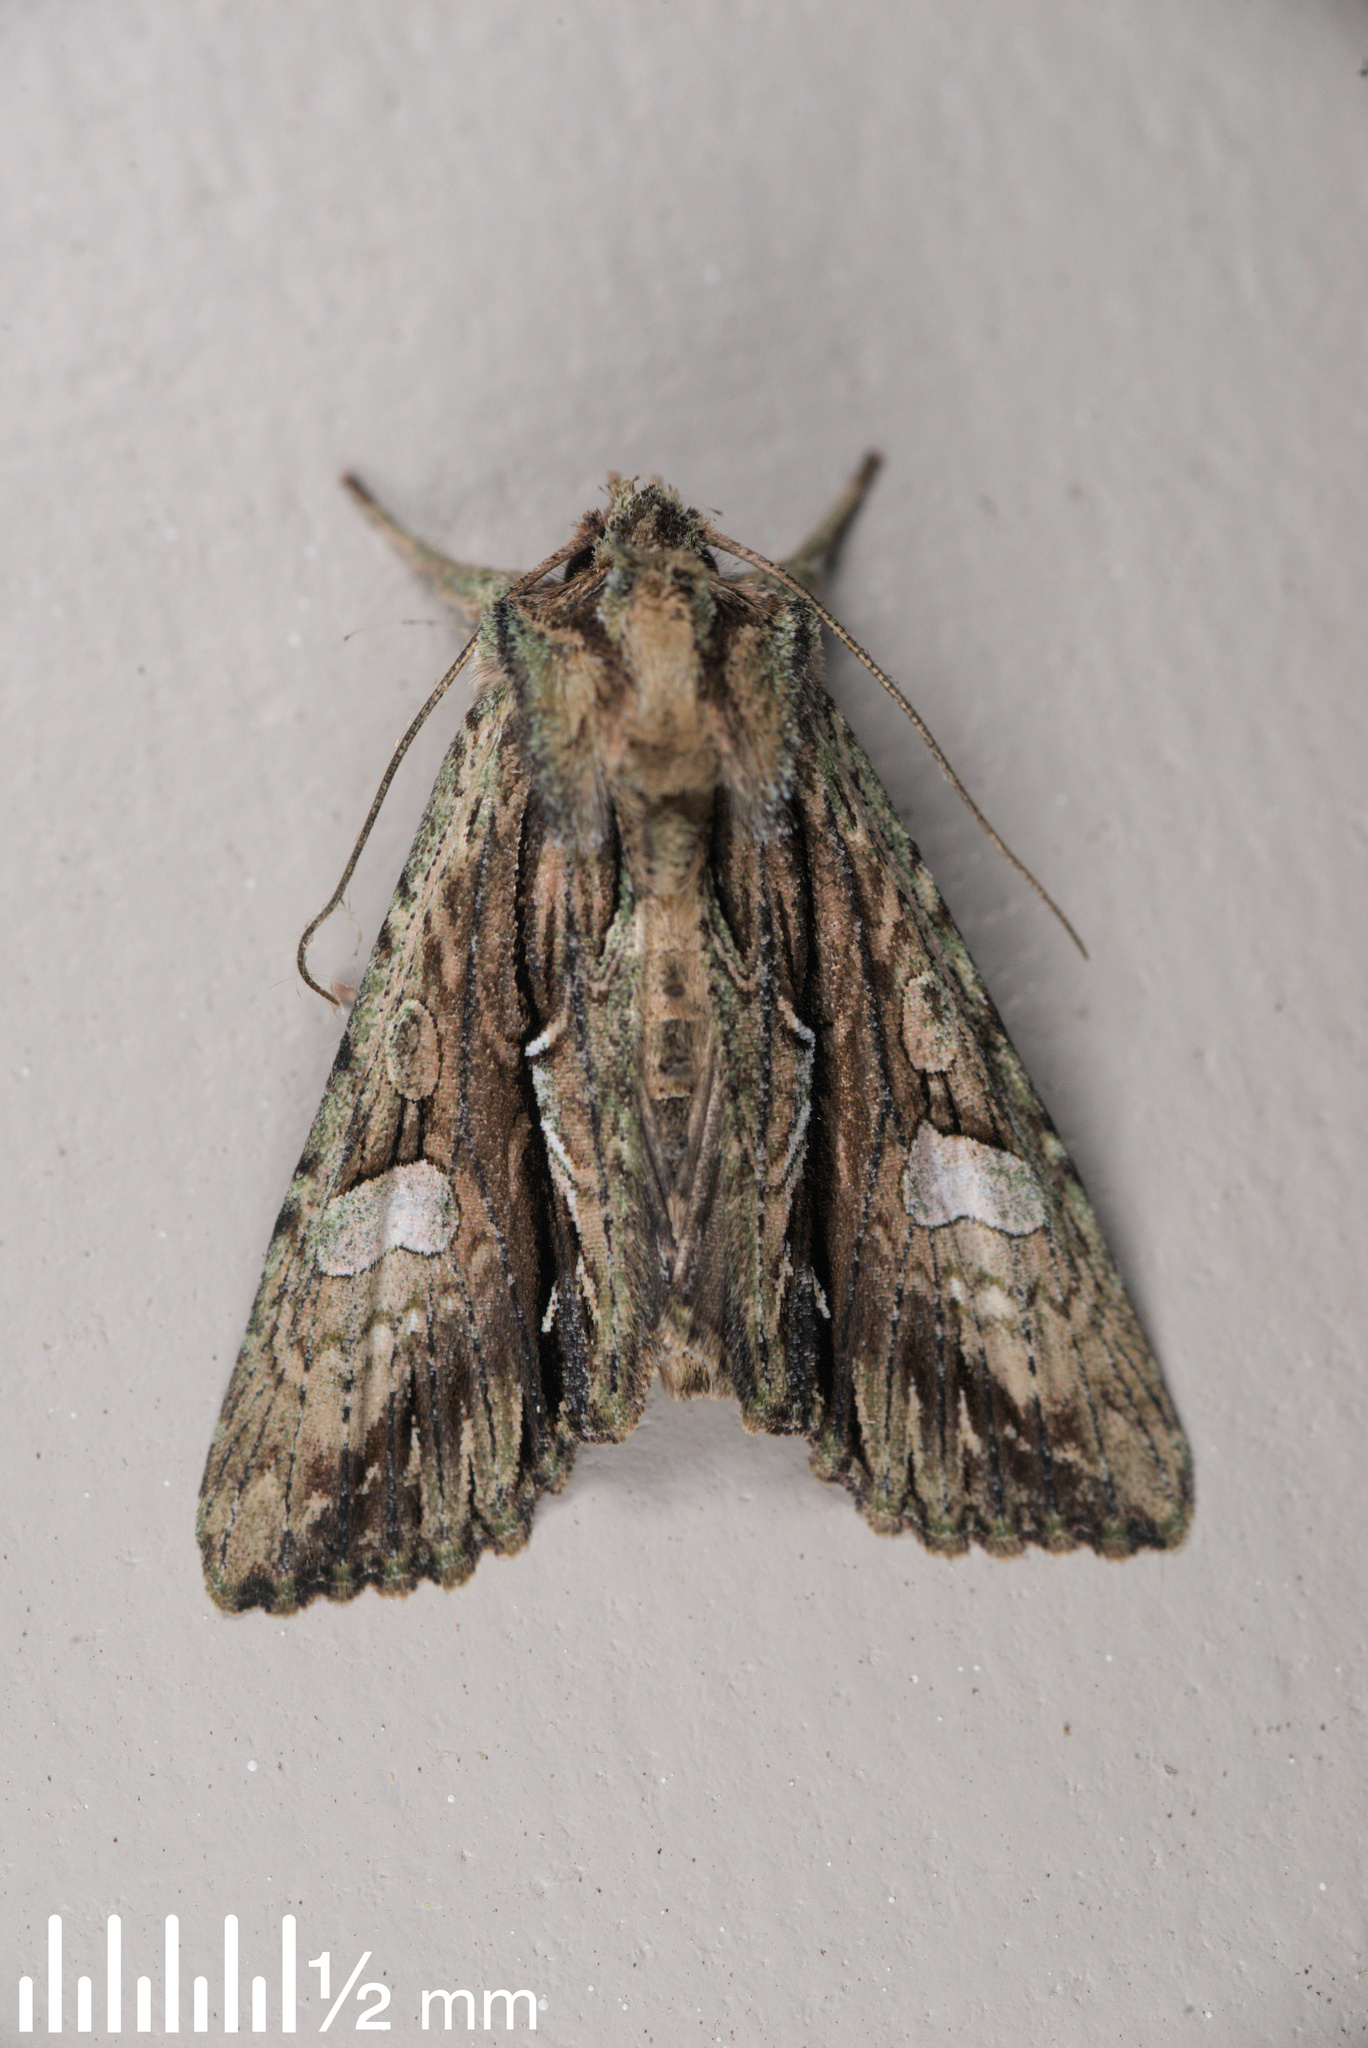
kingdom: Animalia
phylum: Arthropoda
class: Insecta
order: Lepidoptera
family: Noctuidae
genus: Meterana
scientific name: Meterana decorata
